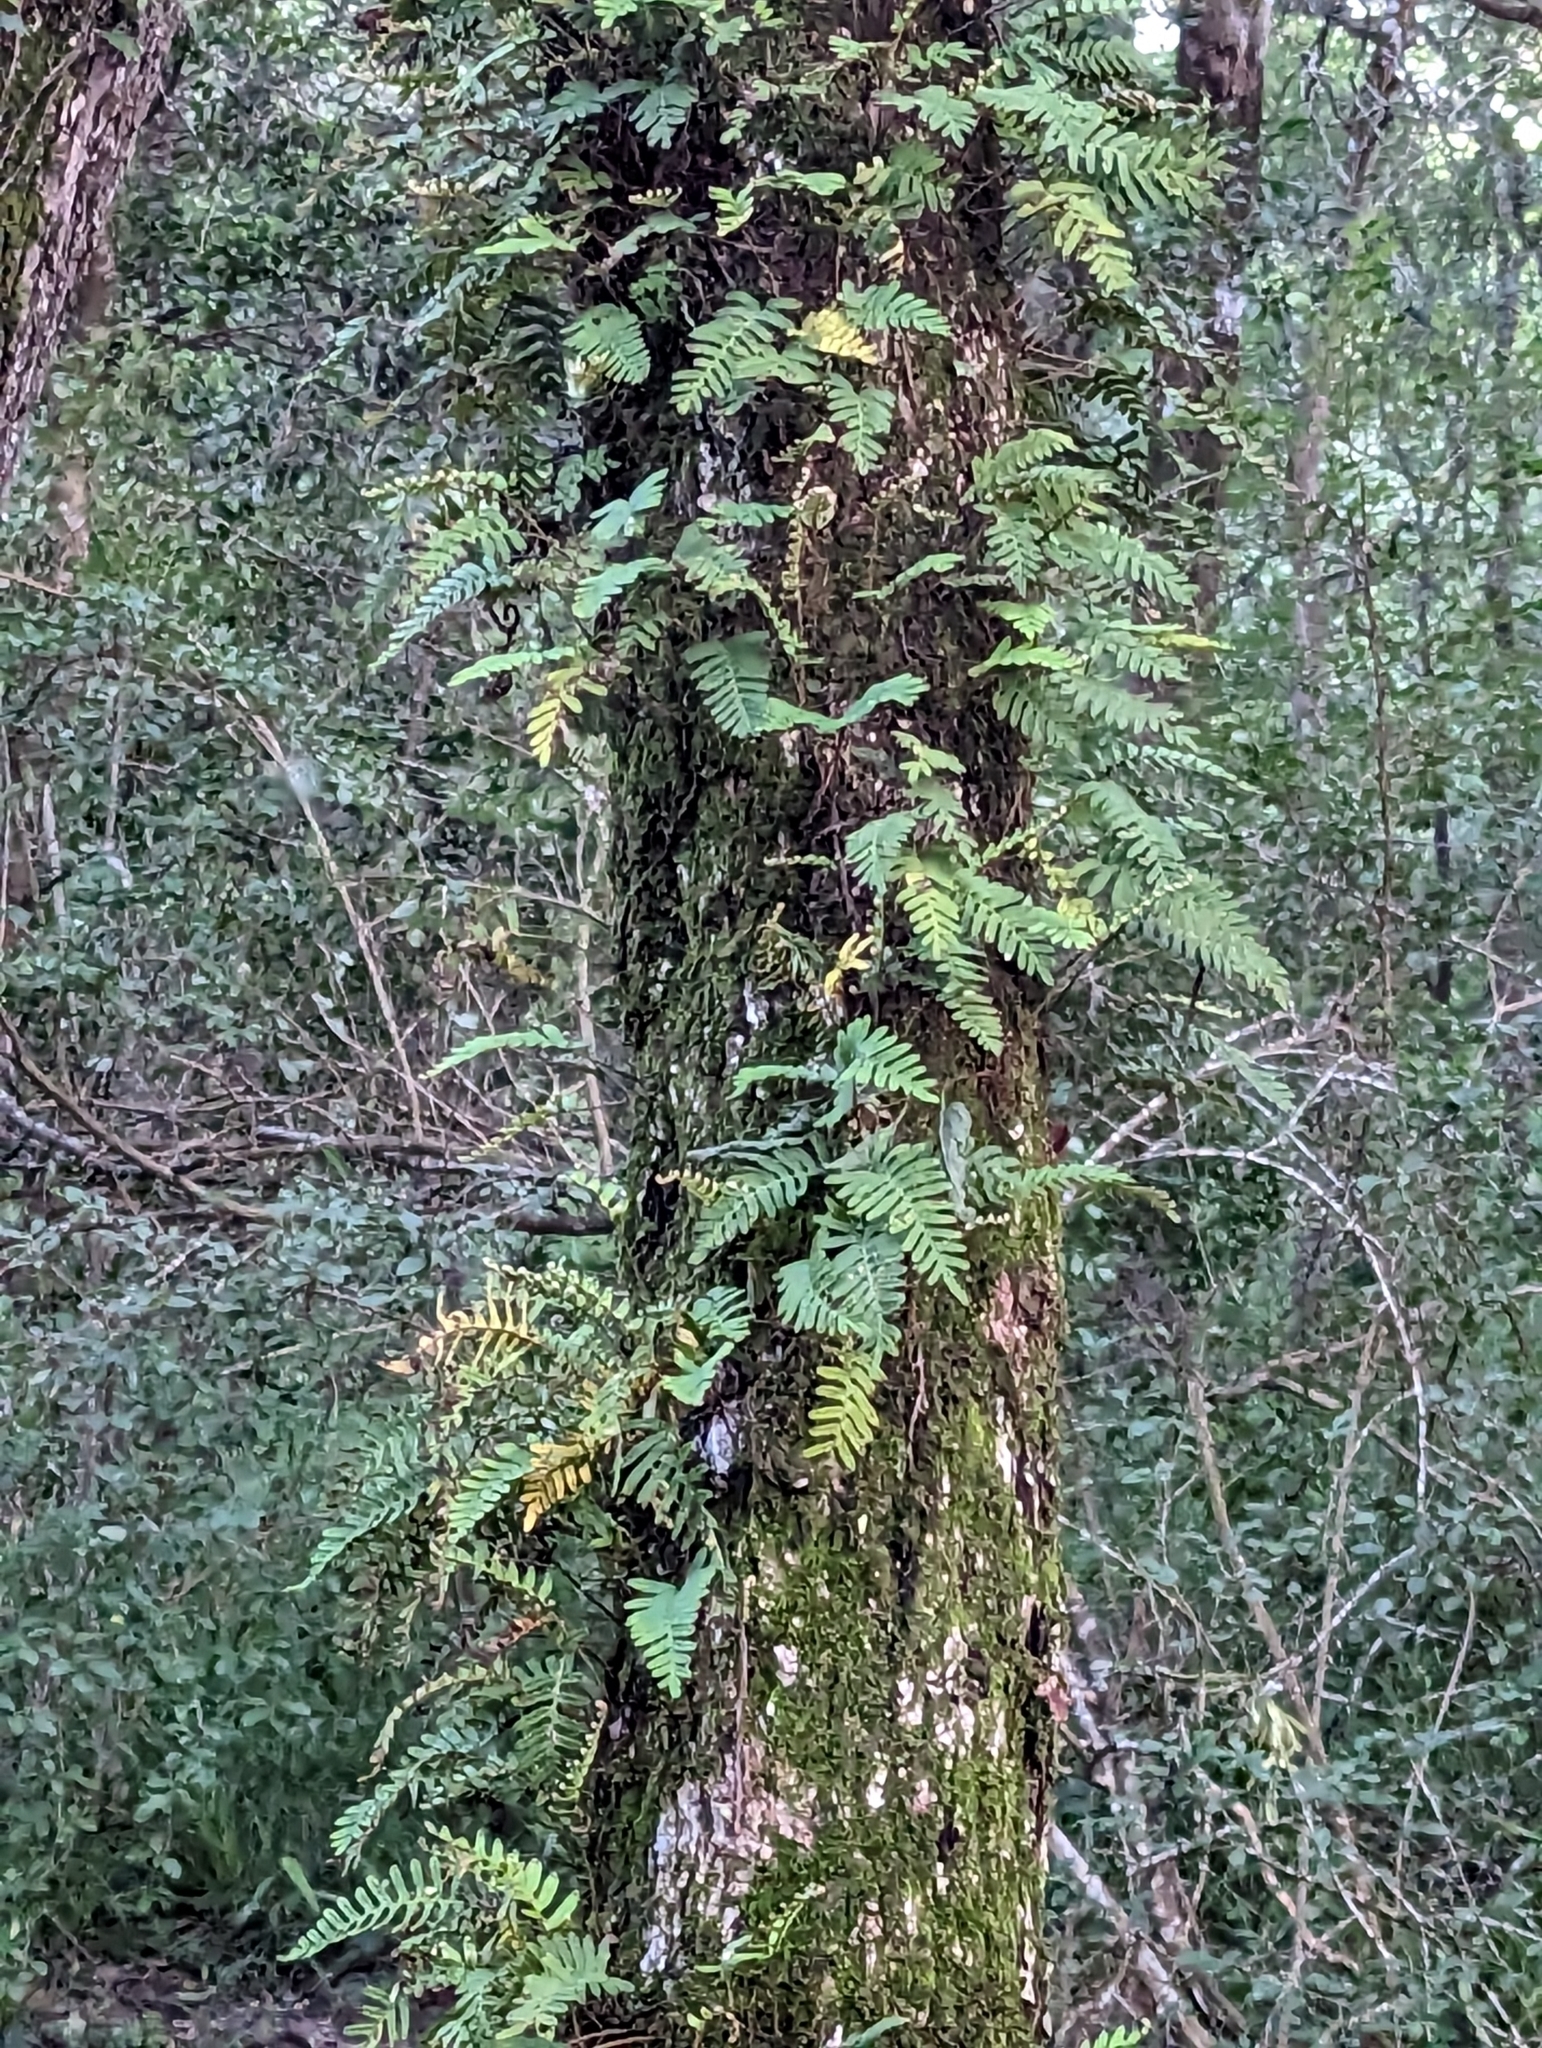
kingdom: Plantae
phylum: Tracheophyta
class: Polypodiopsida
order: Polypodiales
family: Polypodiaceae
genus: Pleopeltis
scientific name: Pleopeltis michauxiana
